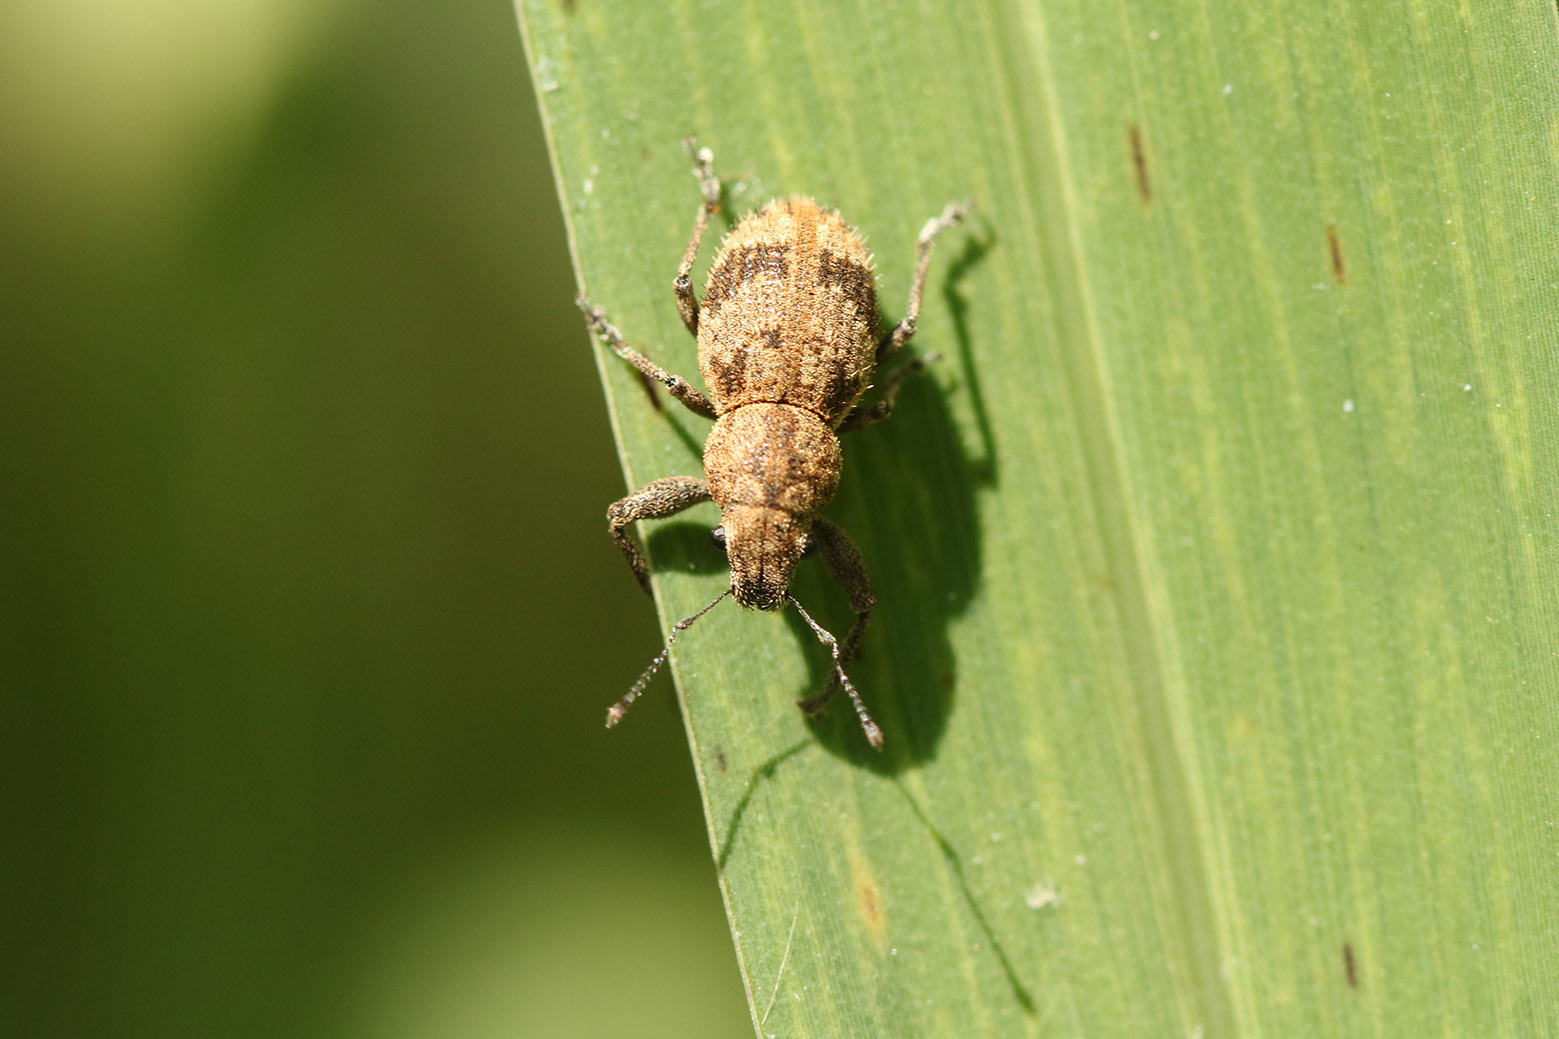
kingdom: Animalia
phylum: Arthropoda
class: Insecta
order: Coleoptera
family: Curculionidae
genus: Pantomorus
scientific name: Pantomorus
